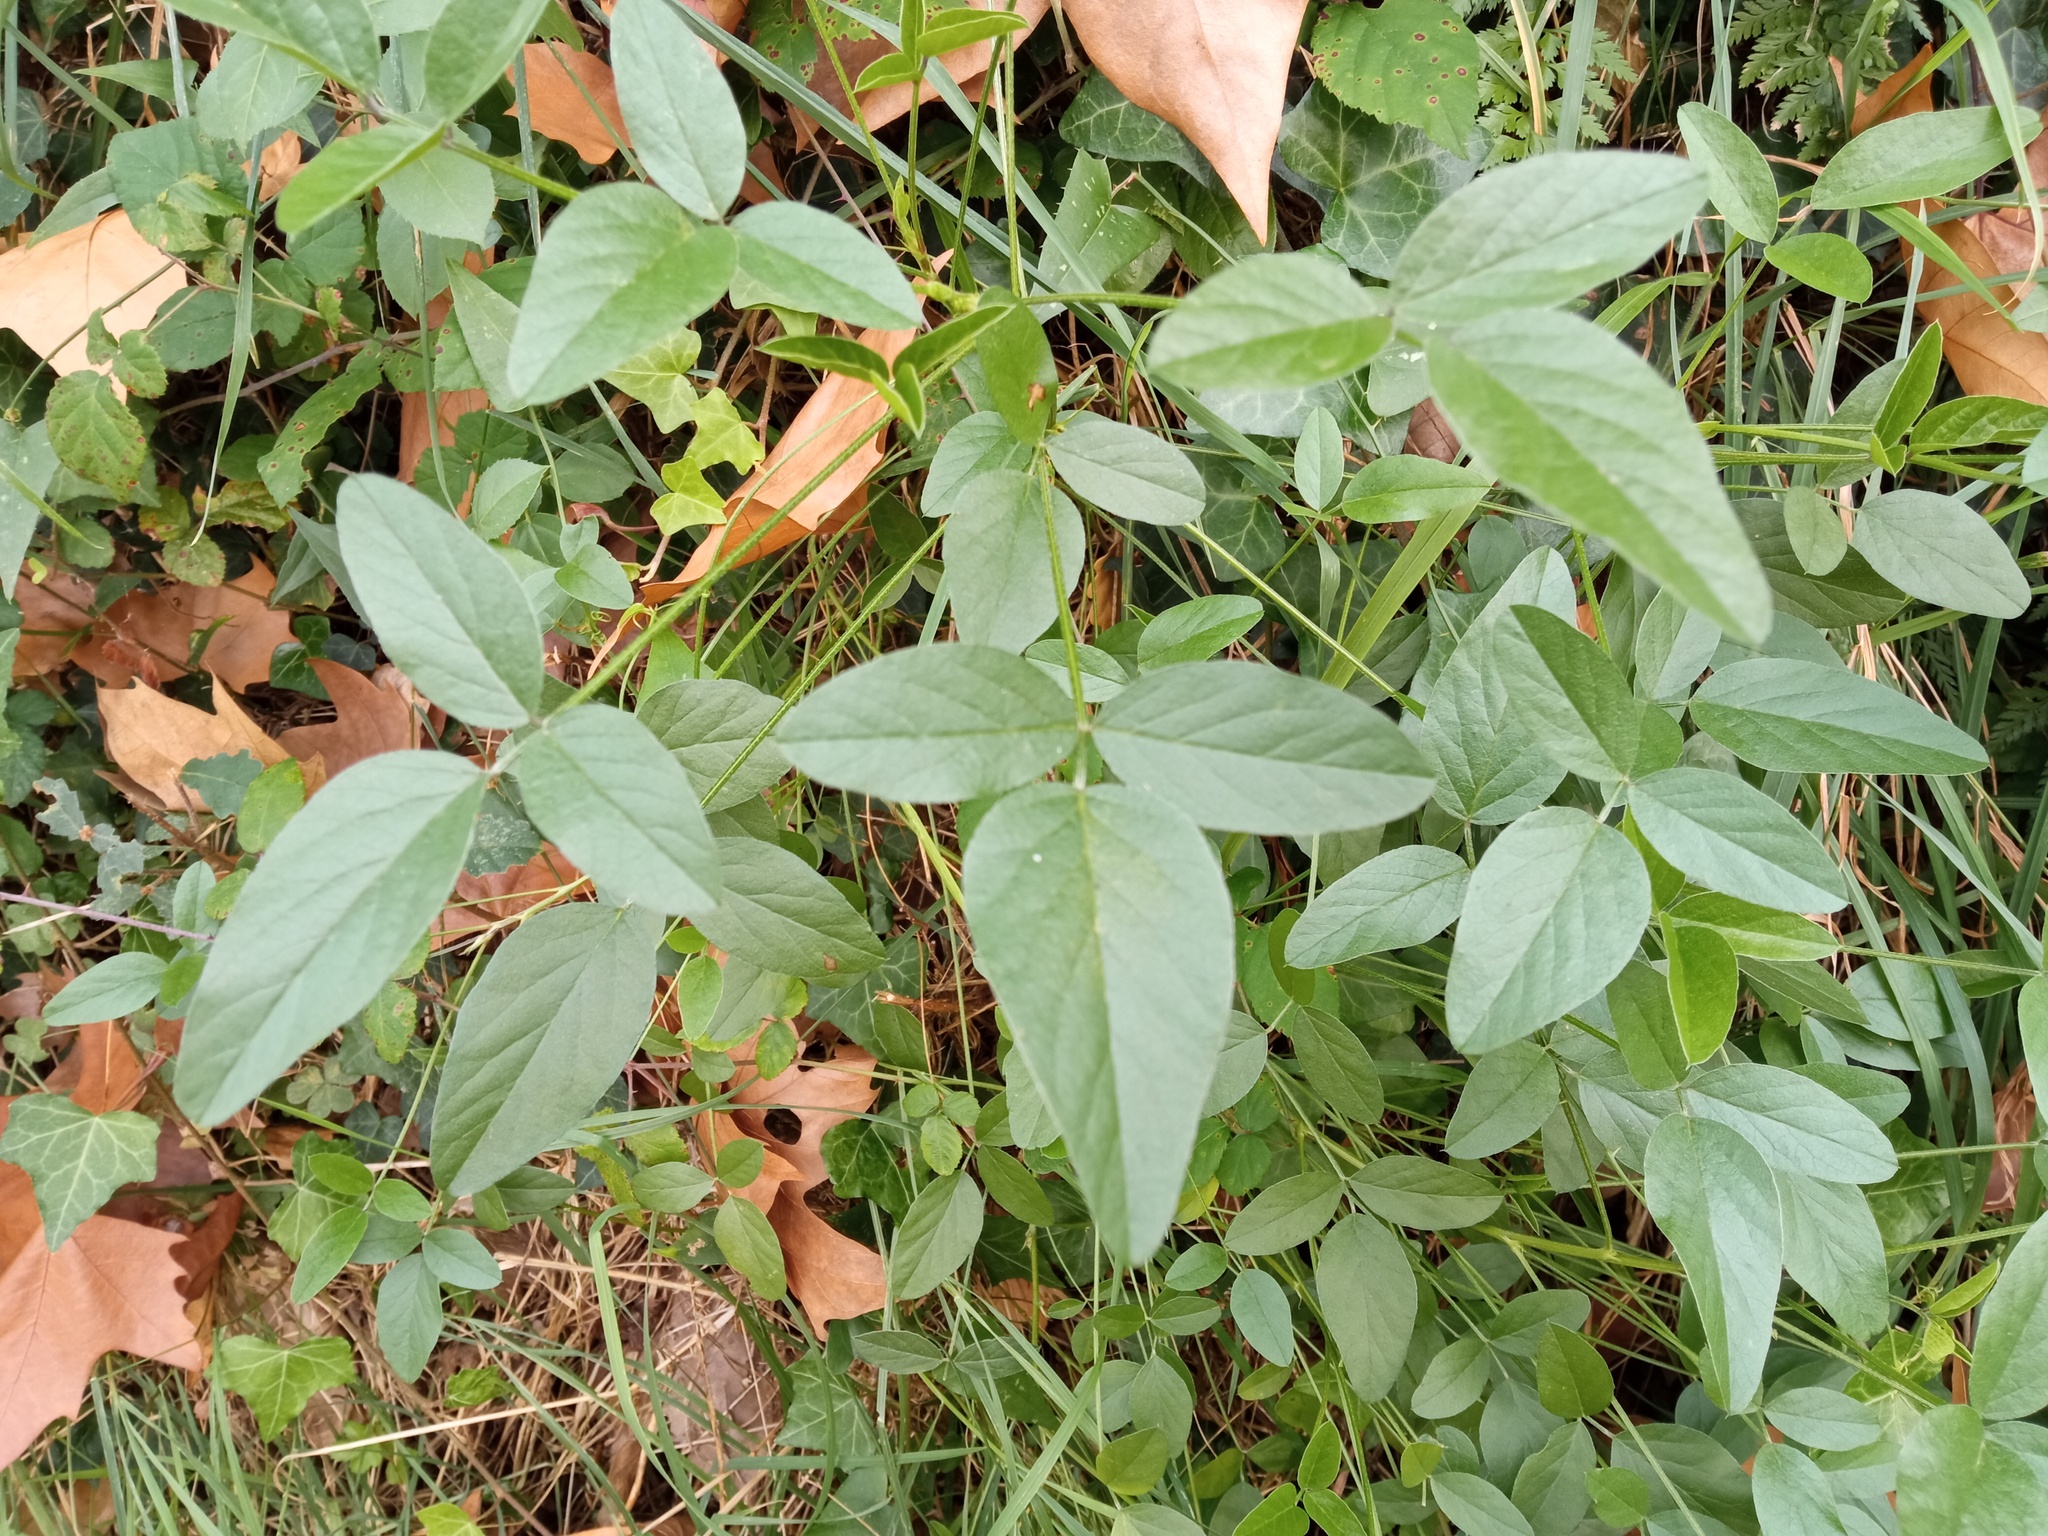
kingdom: Plantae
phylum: Tracheophyta
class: Magnoliopsida
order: Fabales
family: Fabaceae
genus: Bituminaria
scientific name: Bituminaria bituminosa
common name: Arabian pea
